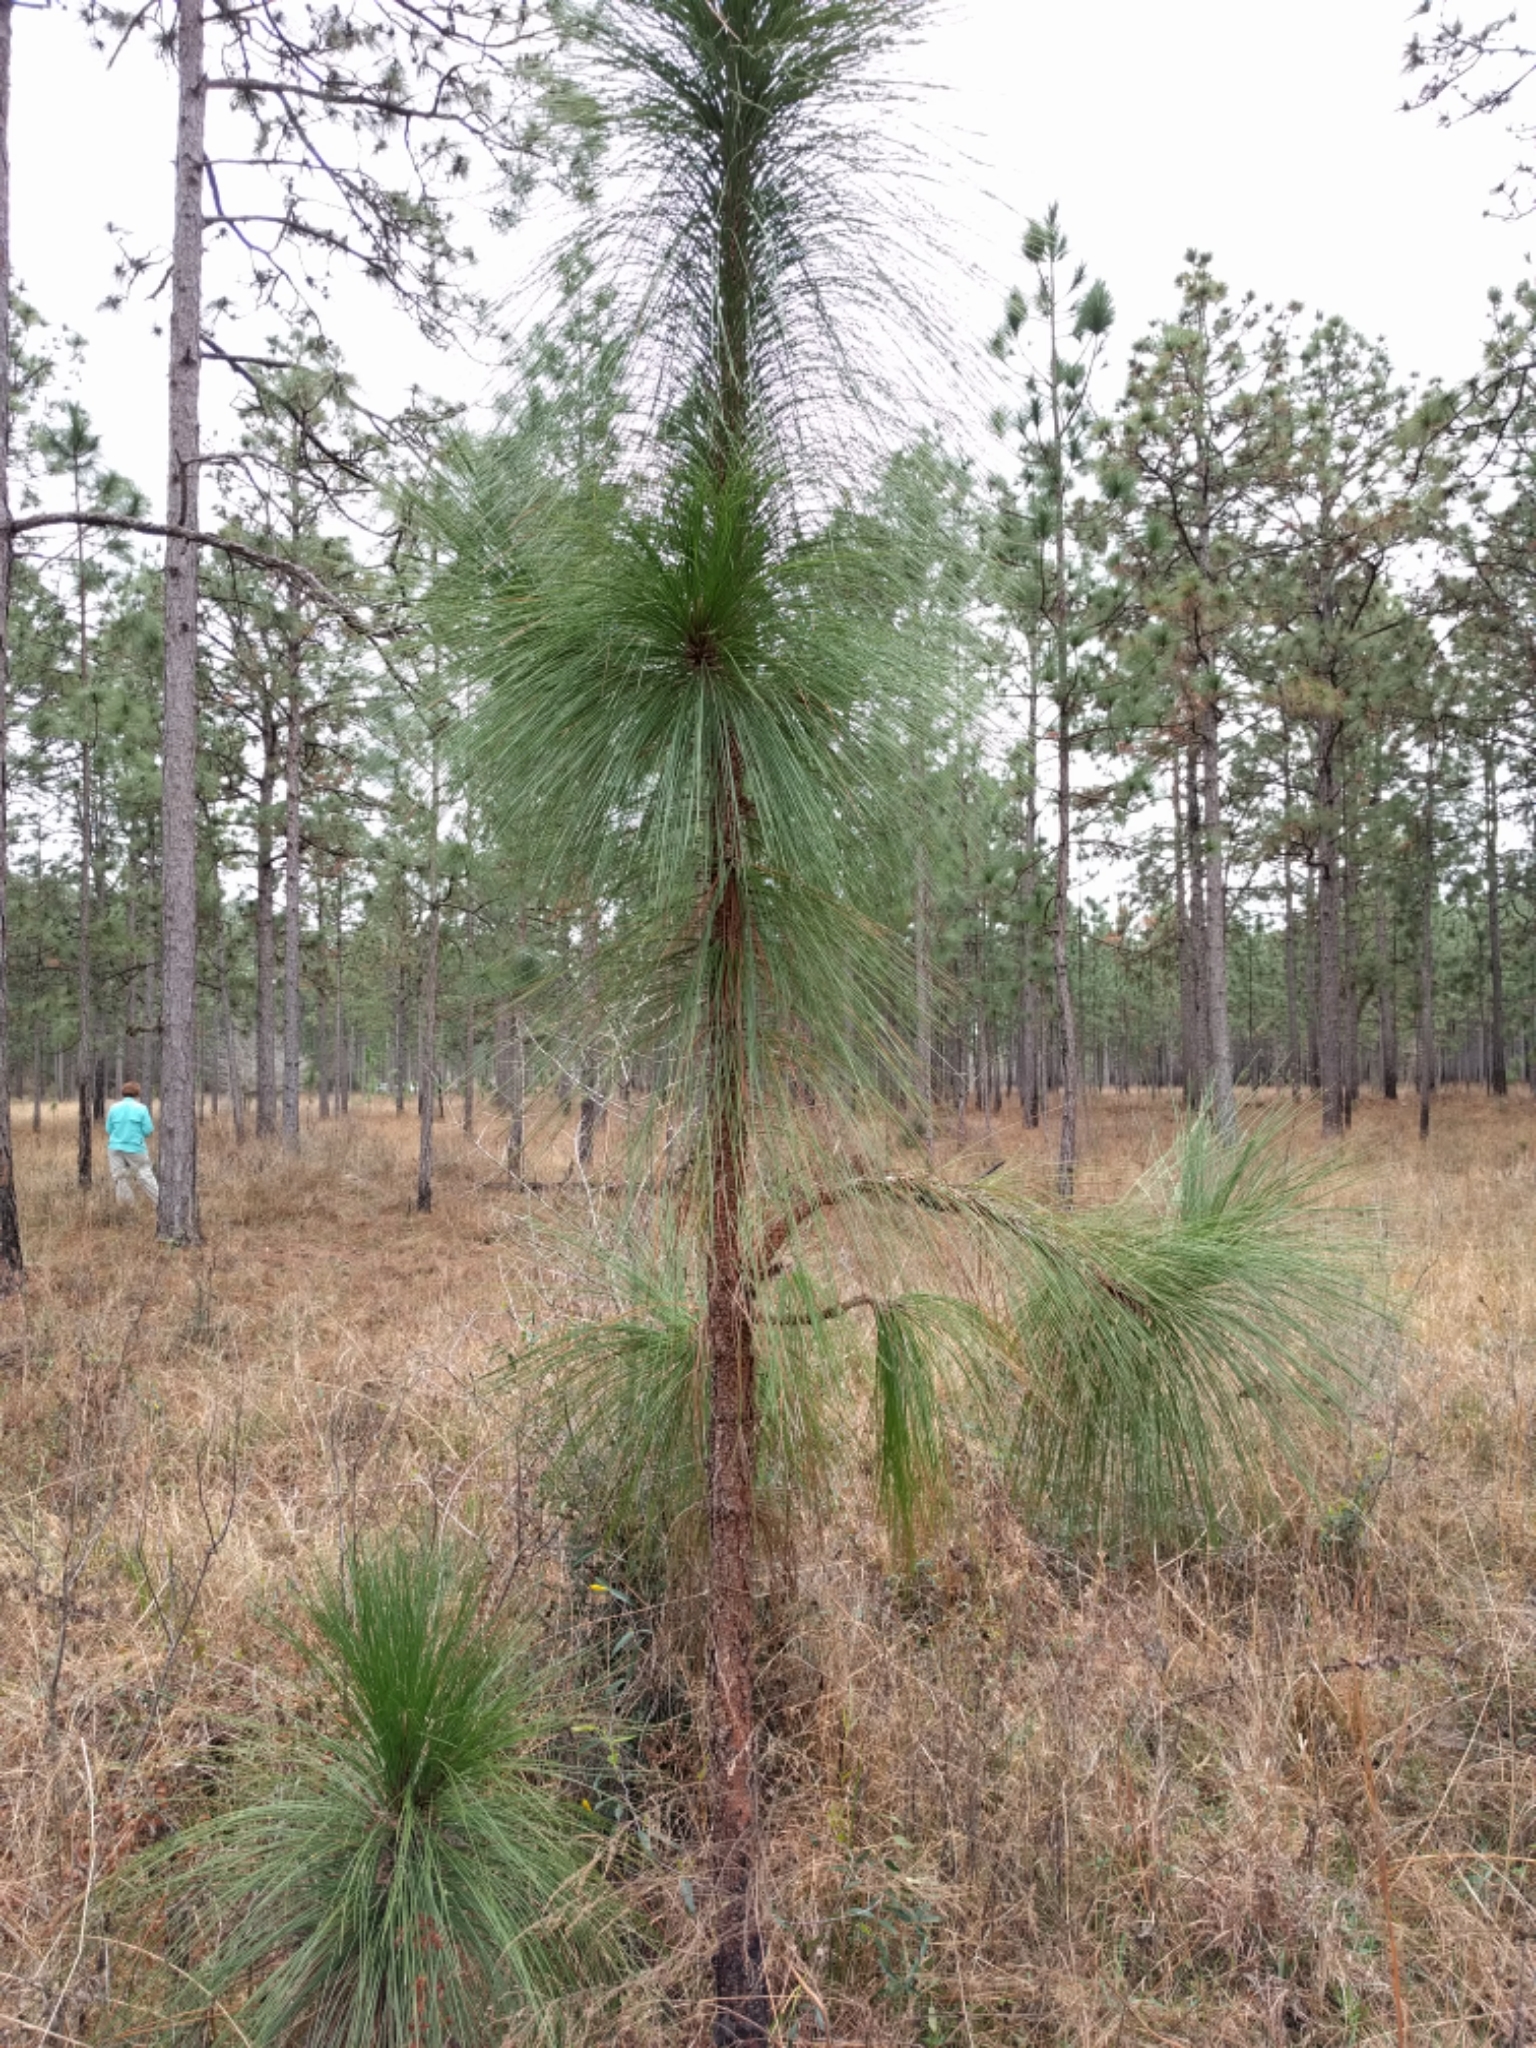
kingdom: Plantae
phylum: Tracheophyta
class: Pinopsida
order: Pinales
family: Pinaceae
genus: Pinus
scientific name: Pinus palustris
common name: Longleaf pine
